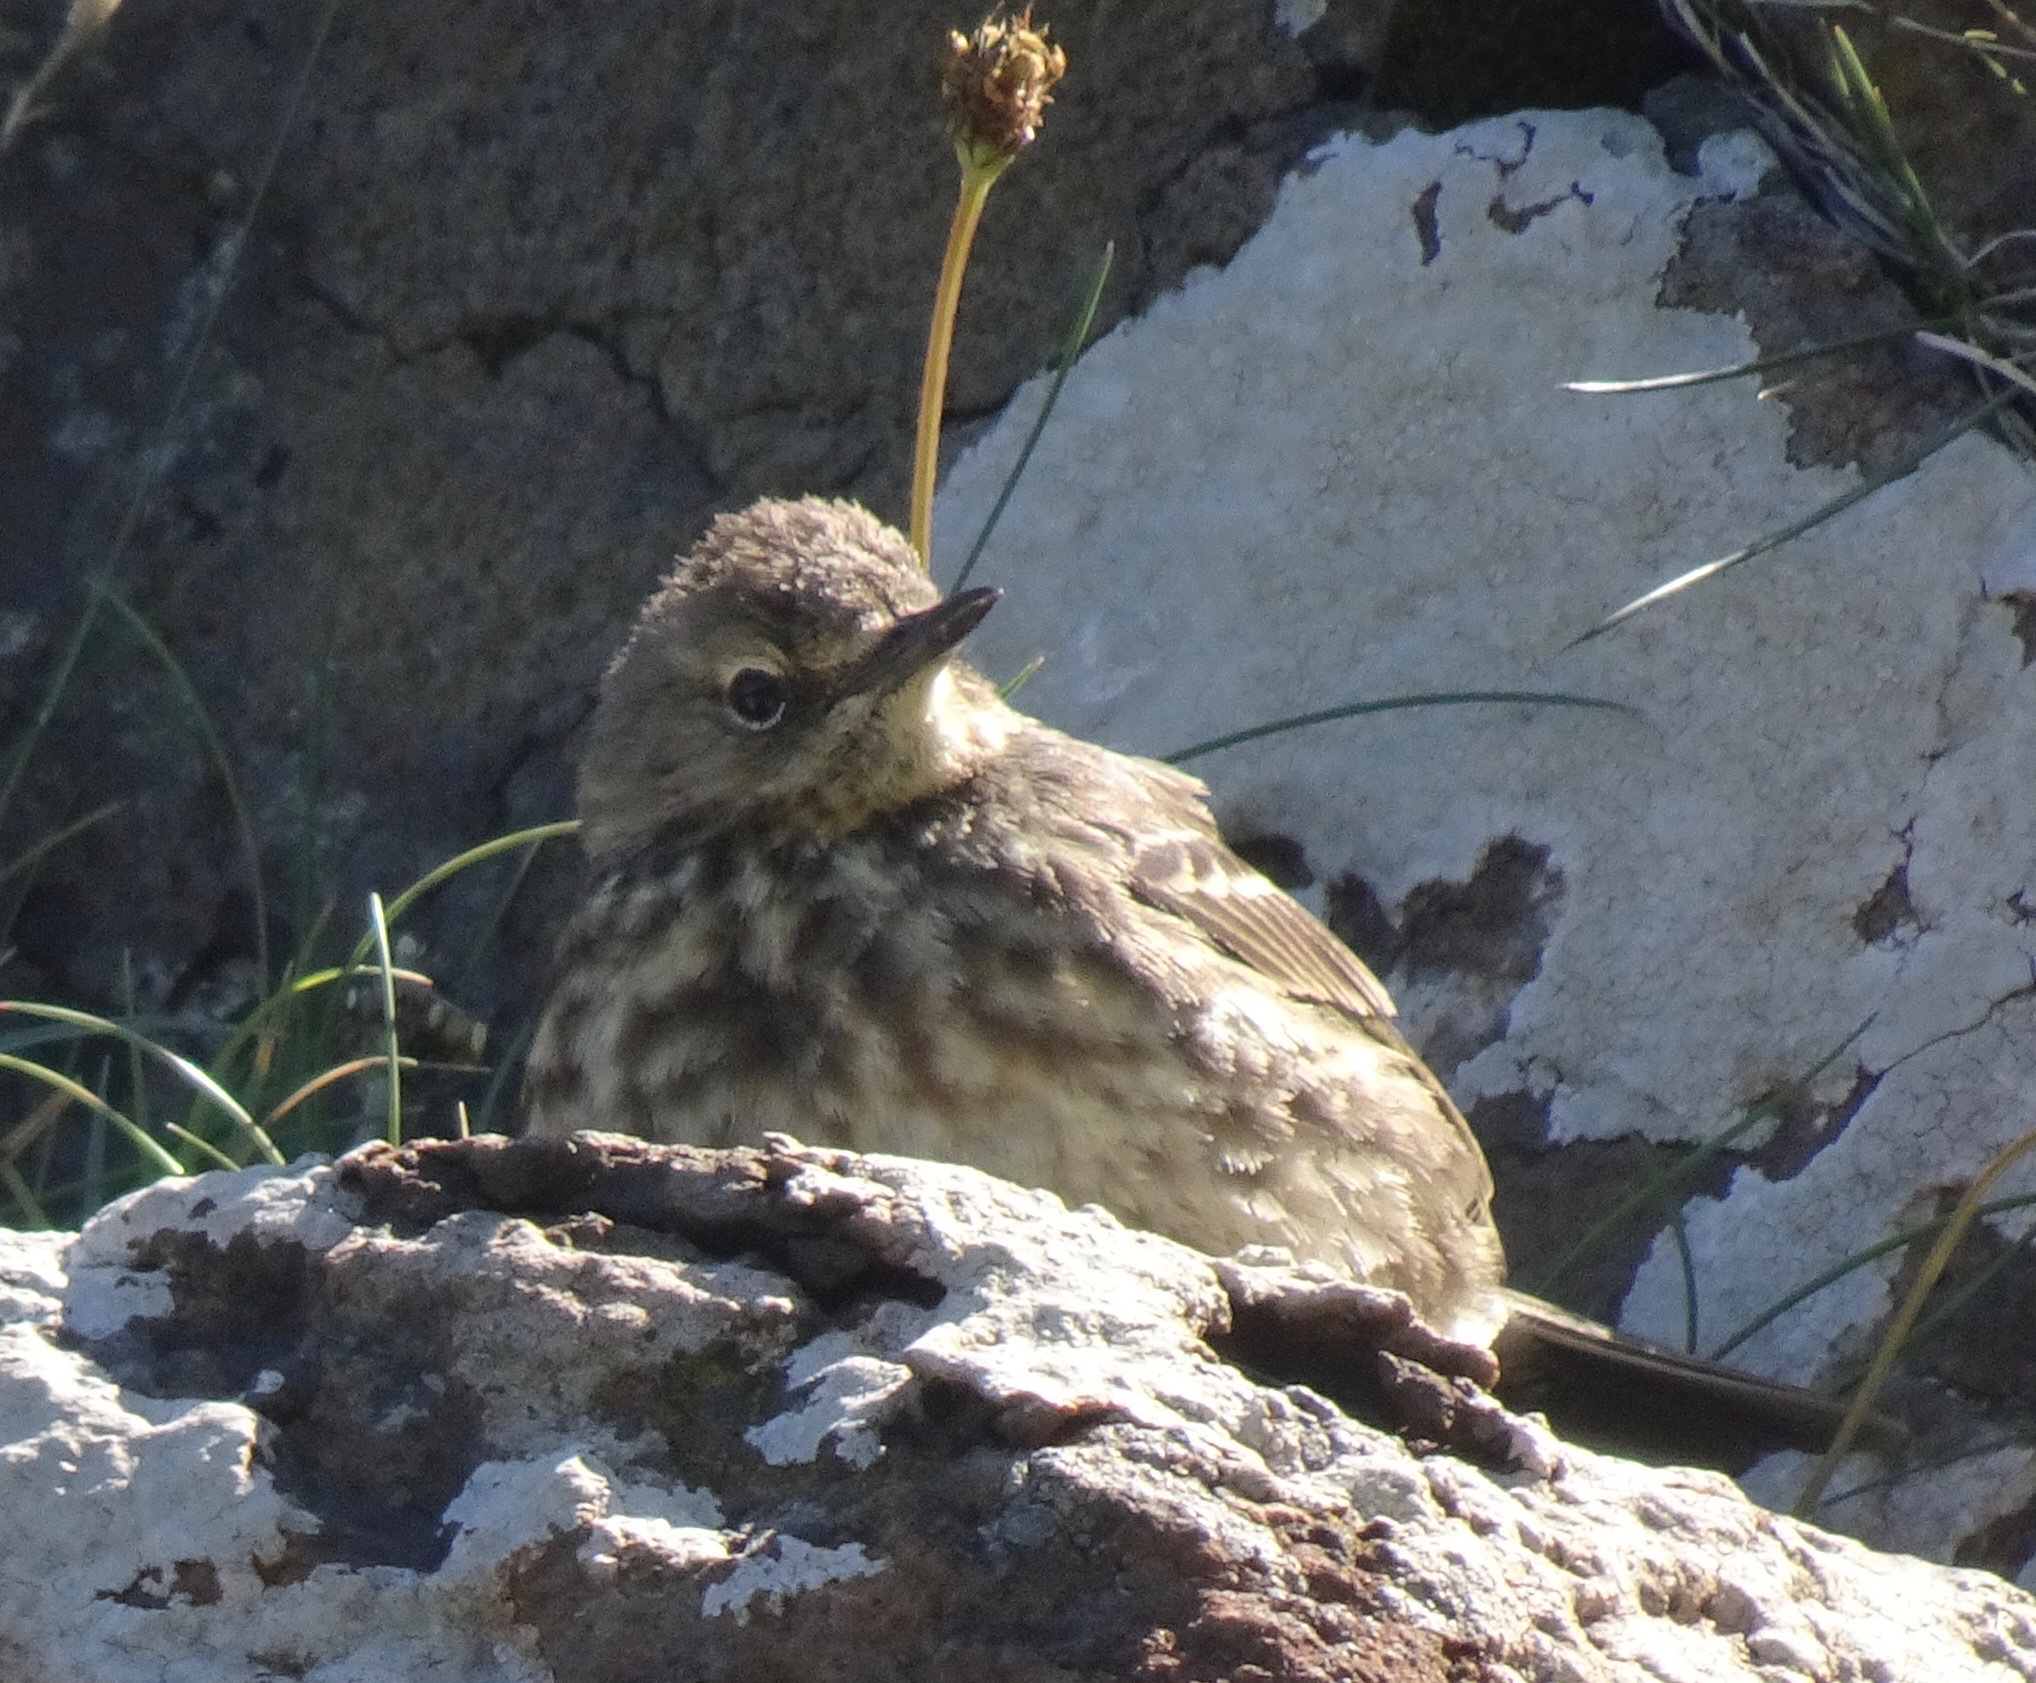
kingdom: Animalia
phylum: Chordata
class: Aves
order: Passeriformes
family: Motacillidae
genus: Anthus
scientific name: Anthus petrosus
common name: Eurasian rock pipit
